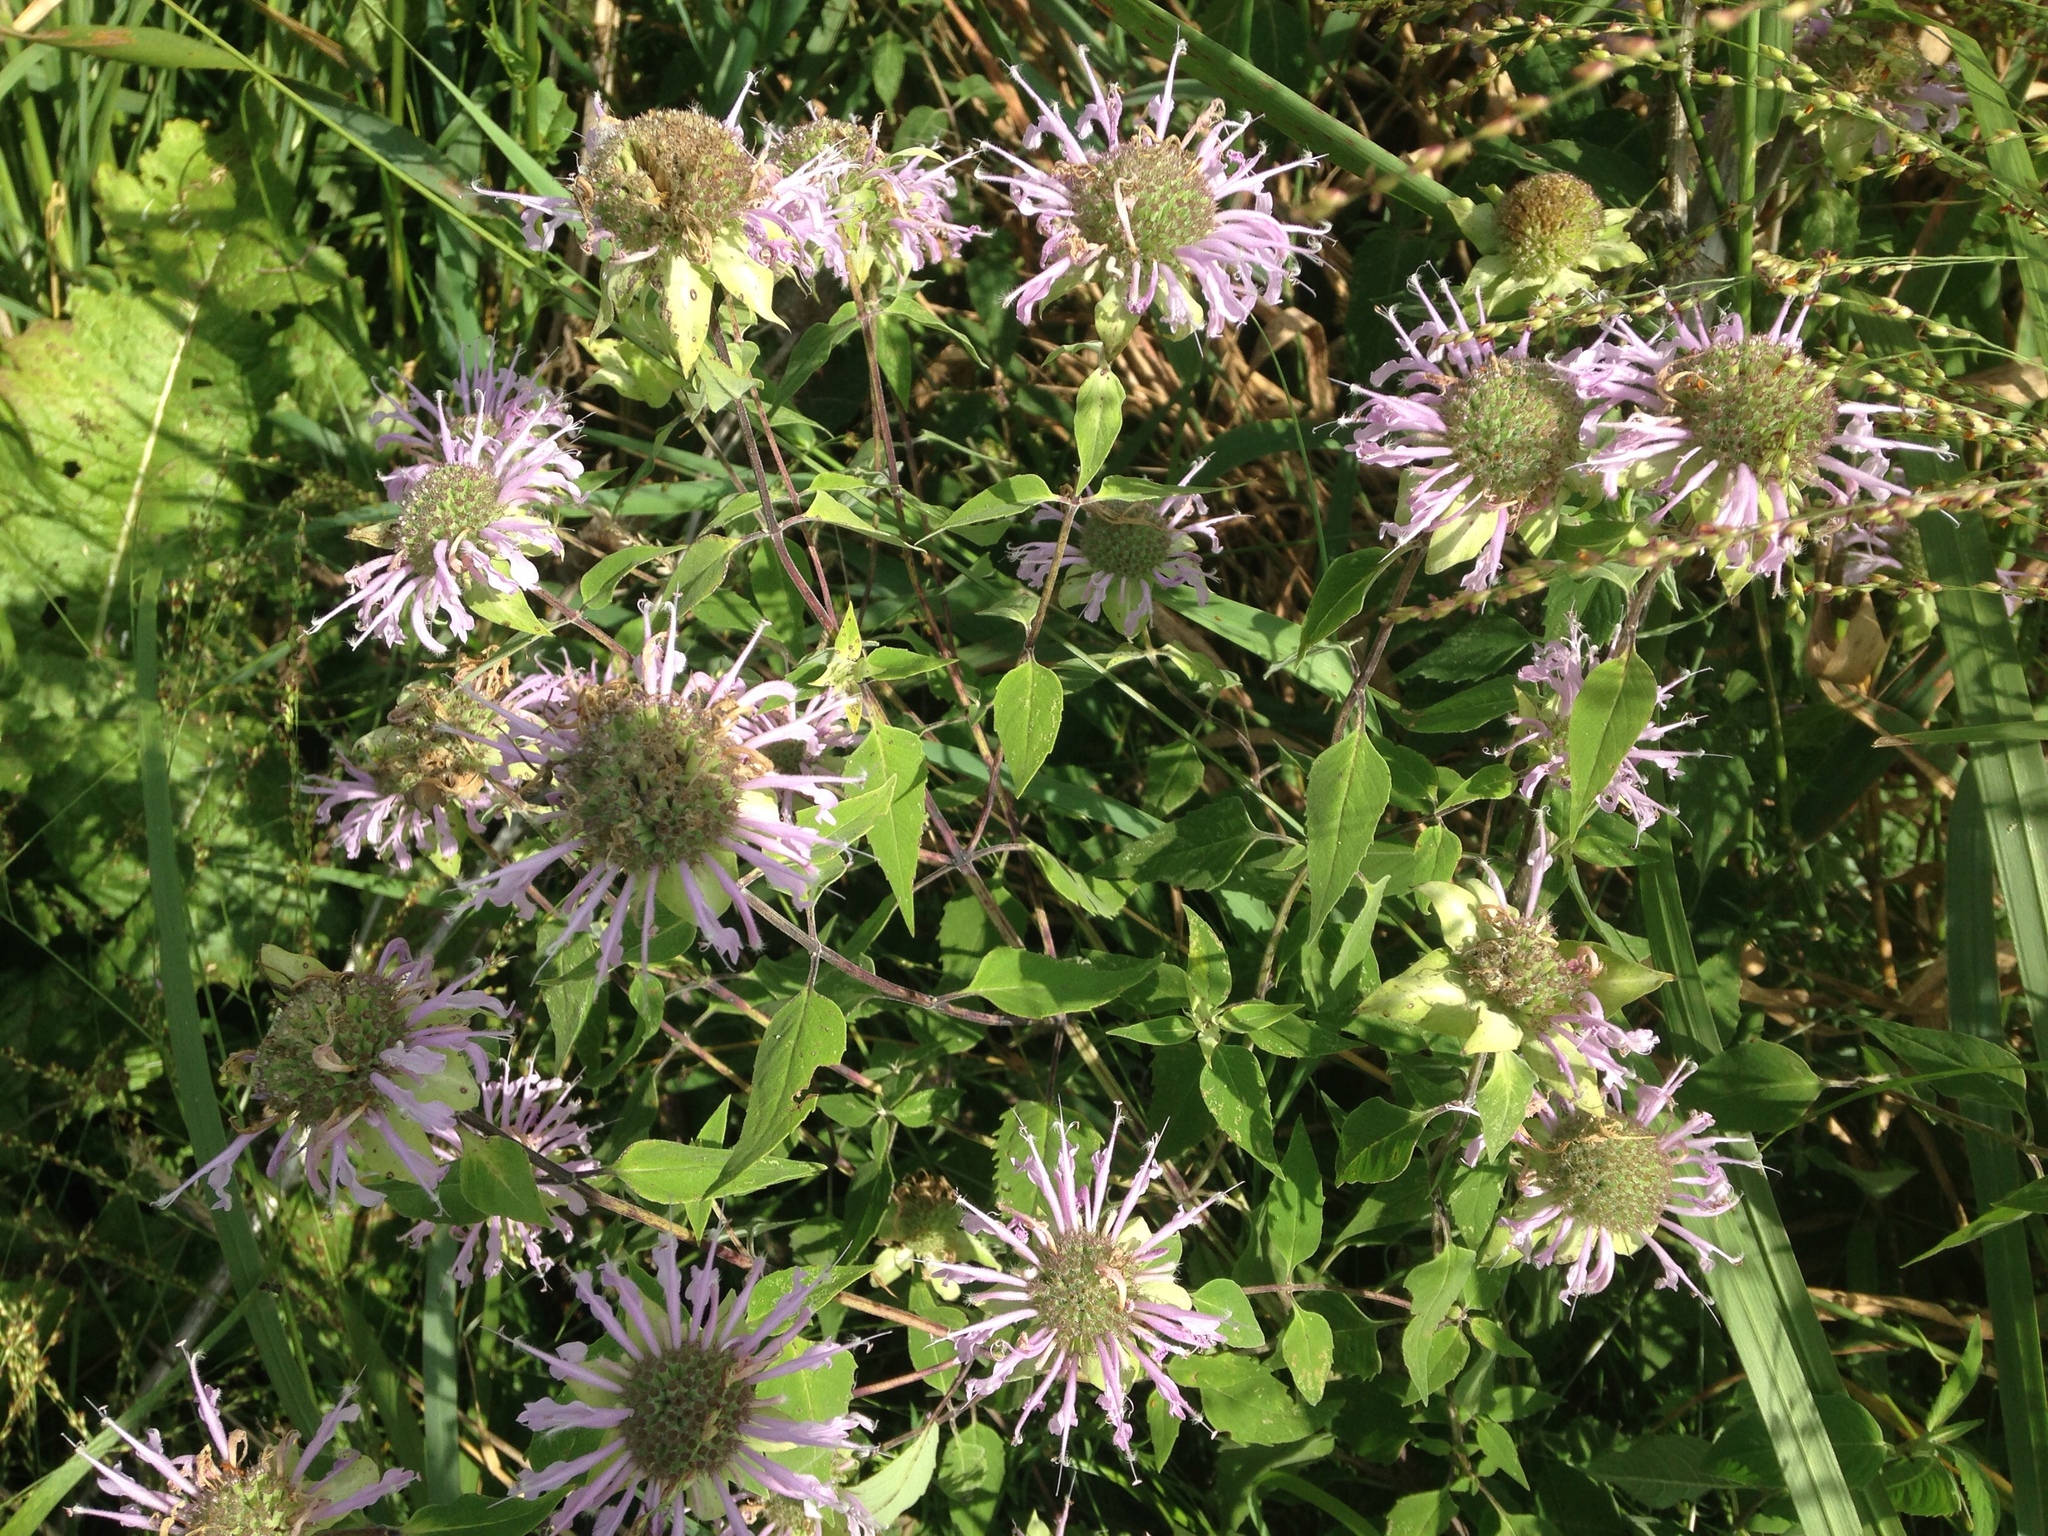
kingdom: Plantae
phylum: Tracheophyta
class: Magnoliopsida
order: Lamiales
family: Lamiaceae
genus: Monarda
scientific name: Monarda fistulosa
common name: Purple beebalm
